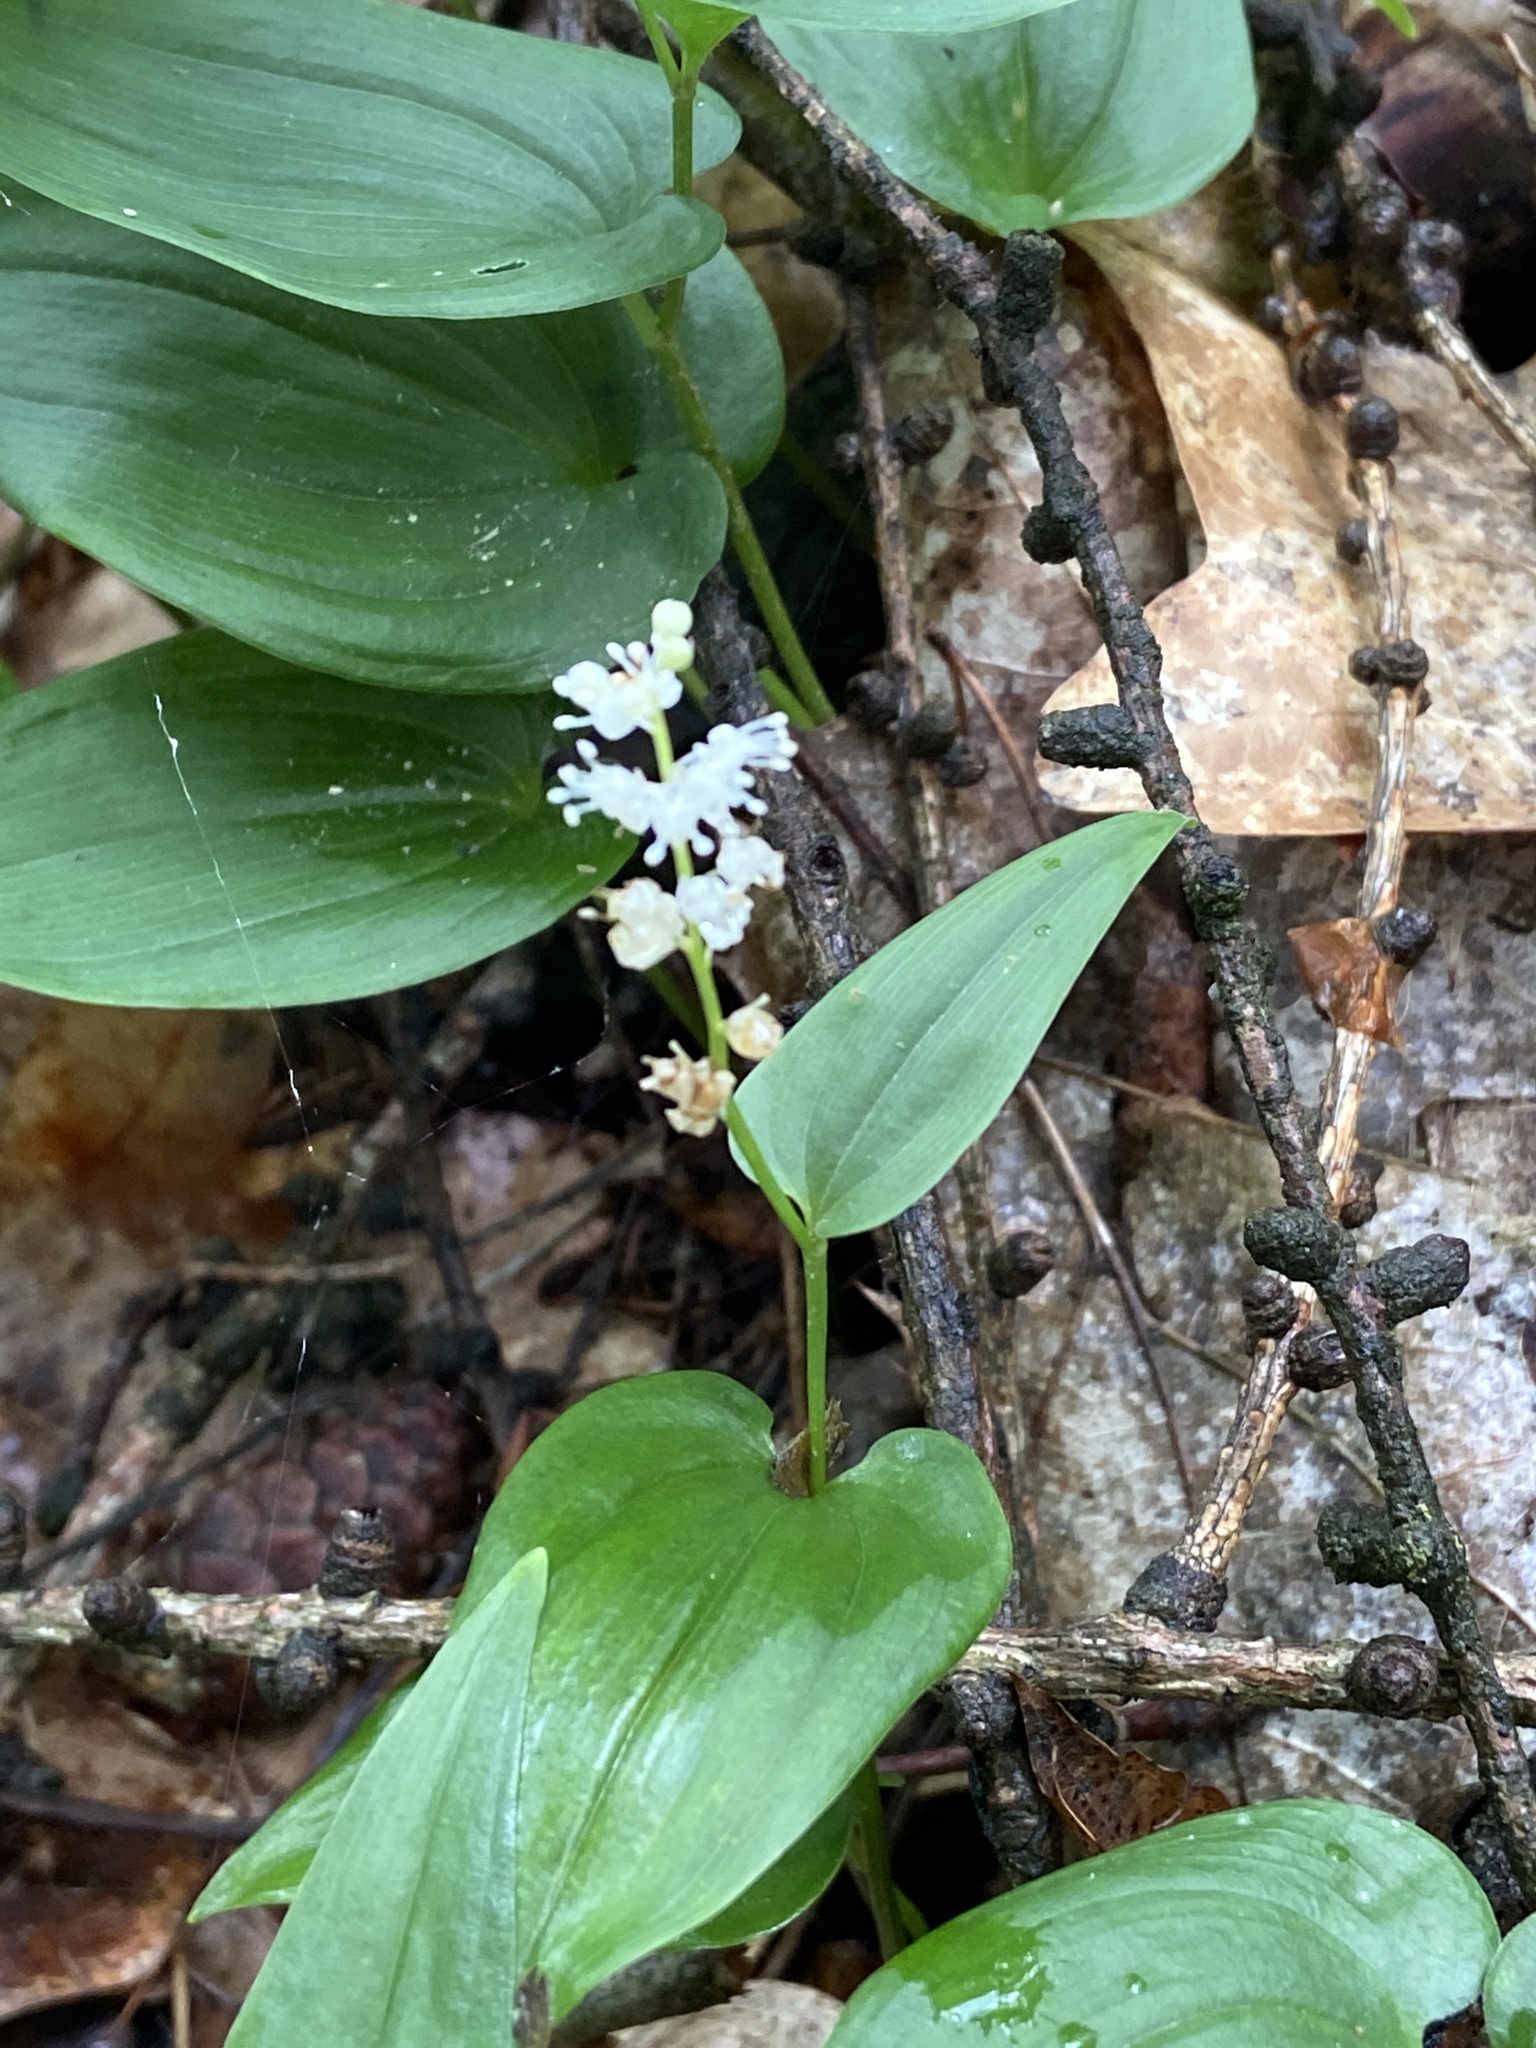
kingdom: Plantae
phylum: Tracheophyta
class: Liliopsida
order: Asparagales
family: Asparagaceae
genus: Maianthemum
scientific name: Maianthemum bifolium
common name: May lily
